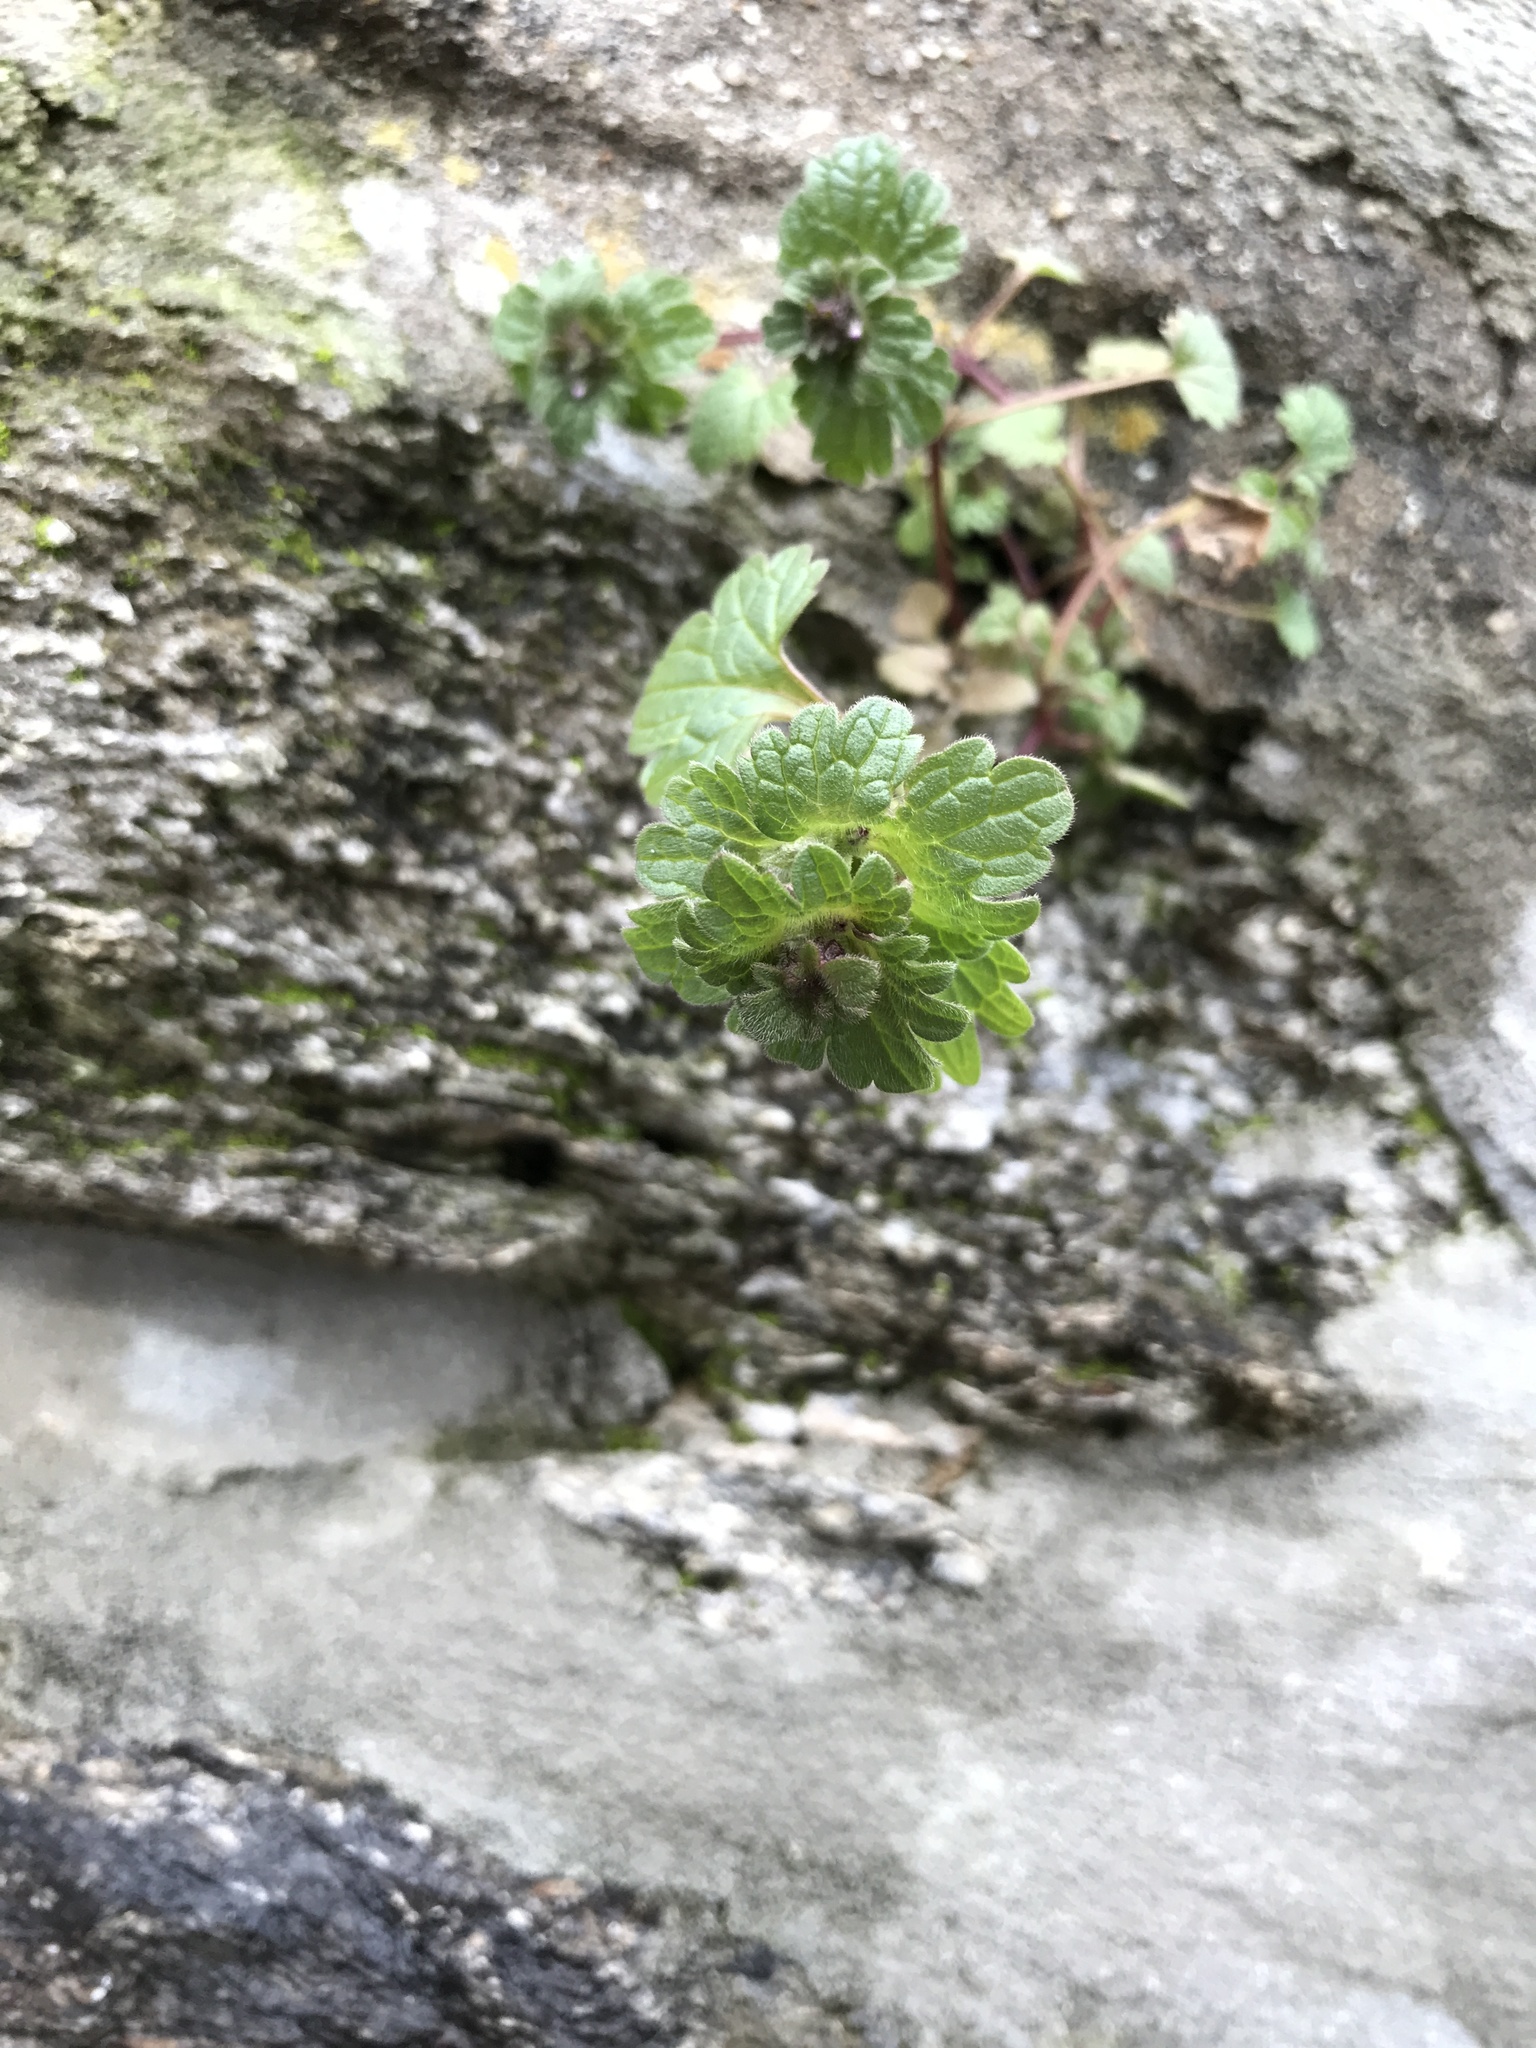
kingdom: Plantae
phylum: Tracheophyta
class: Magnoliopsida
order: Lamiales
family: Lamiaceae
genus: Lamium
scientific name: Lamium amplexicaule
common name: Henbit dead-nettle
